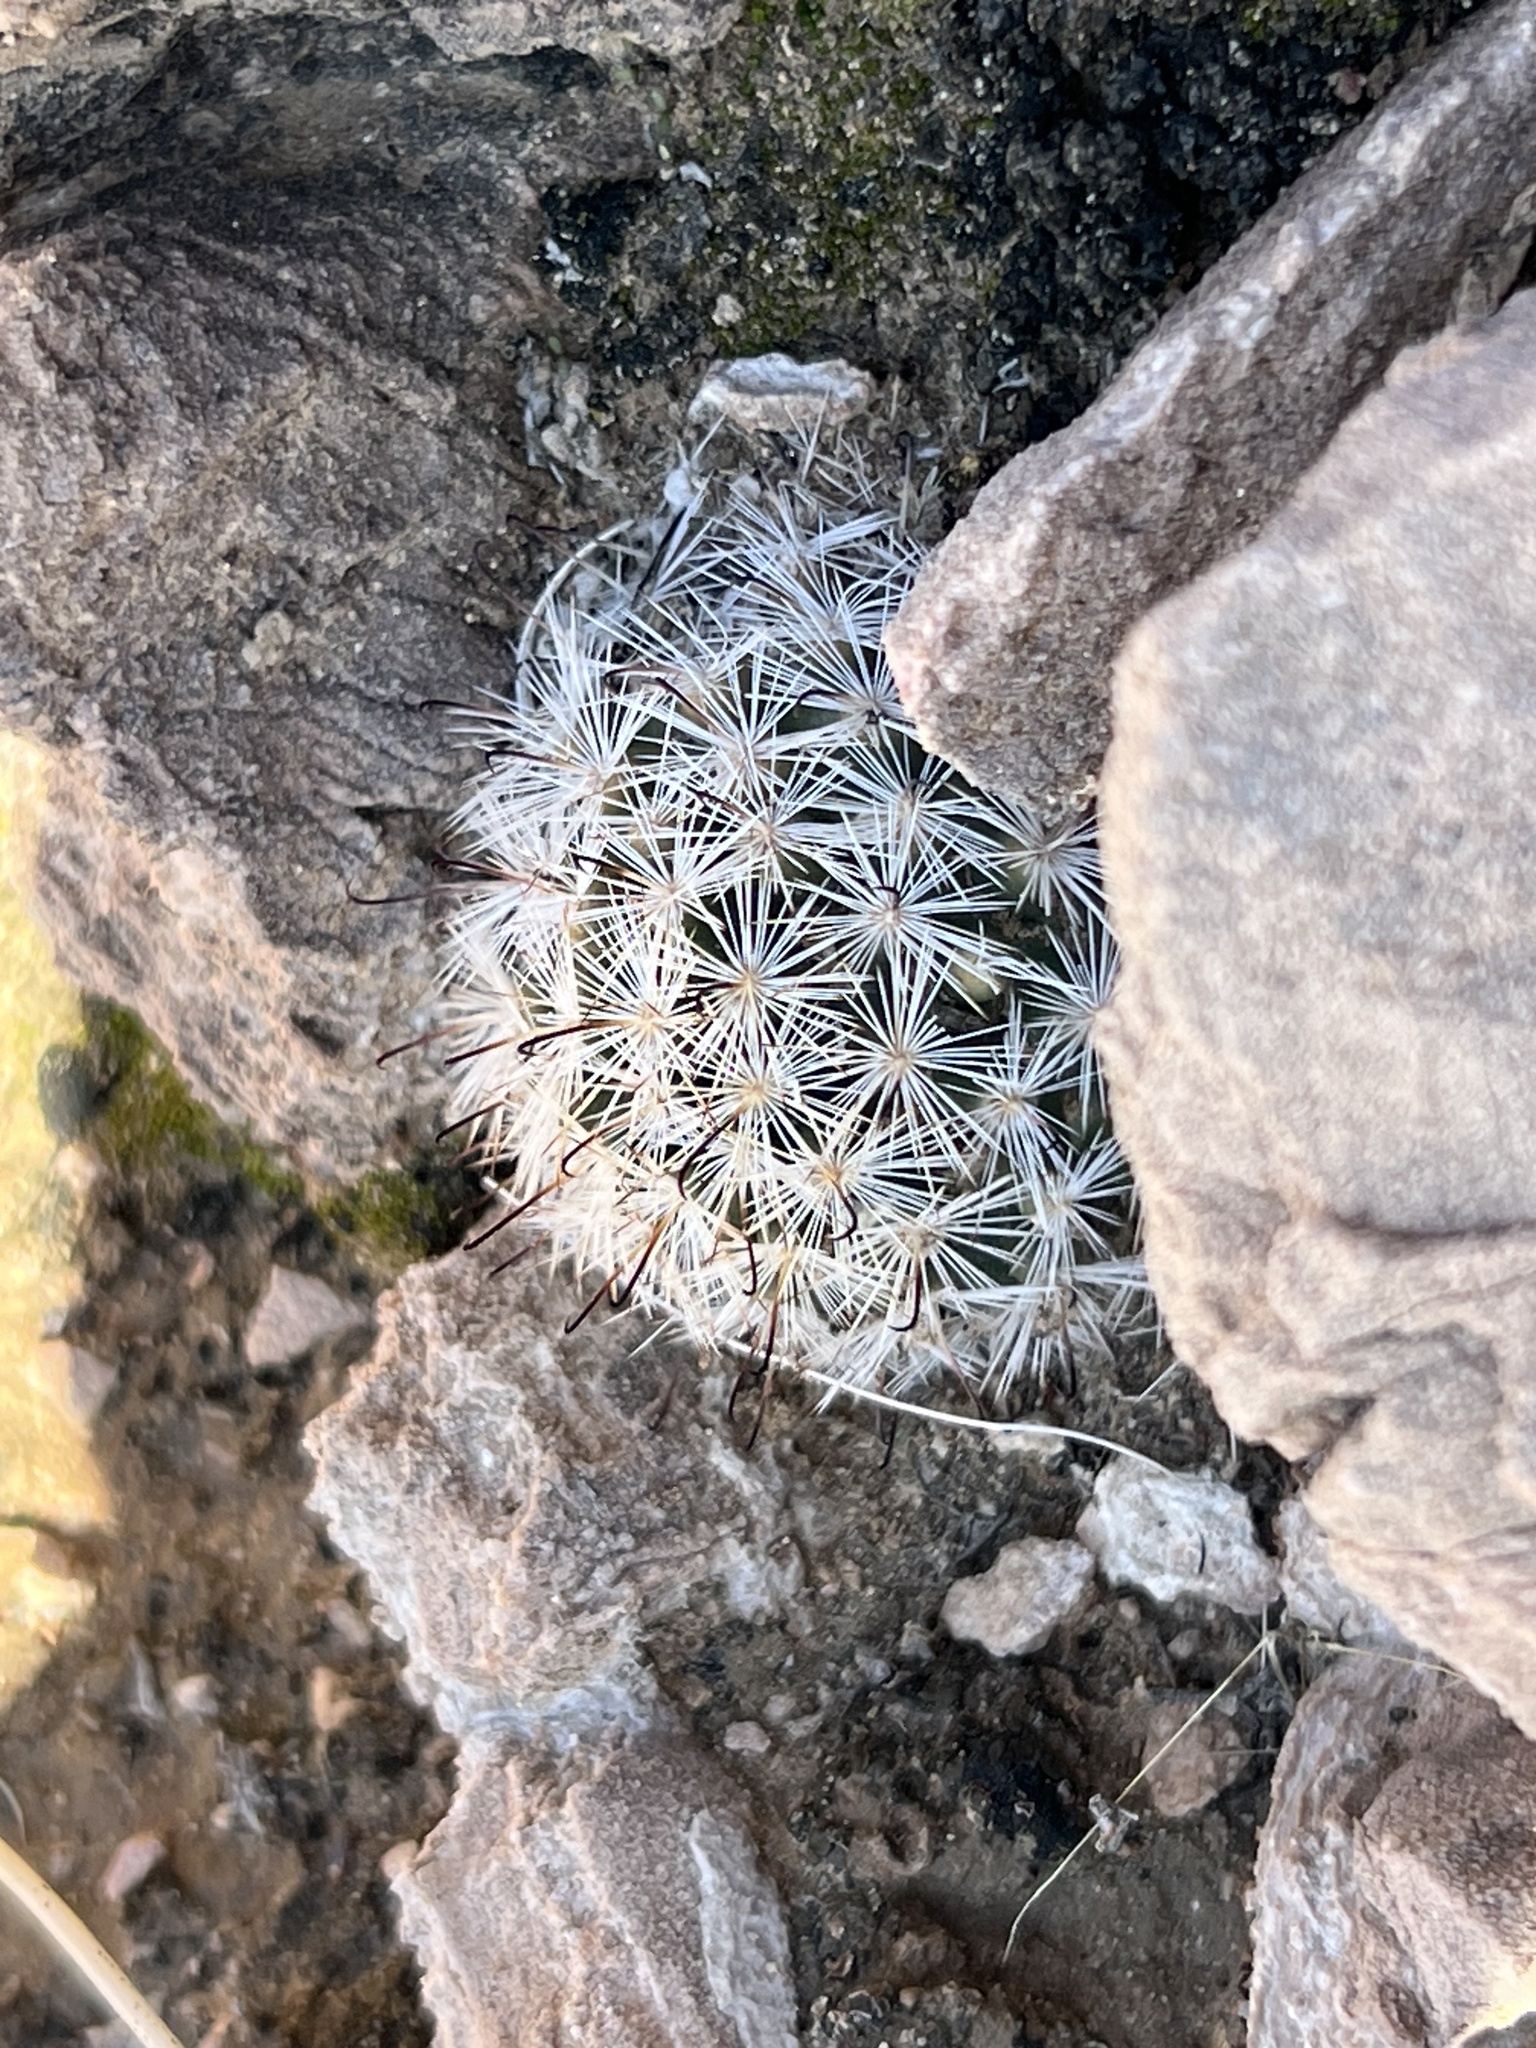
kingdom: Plantae
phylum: Tracheophyta
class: Magnoliopsida
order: Caryophyllales
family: Cactaceae
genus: Cochemiea
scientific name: Cochemiea tetrancistra
